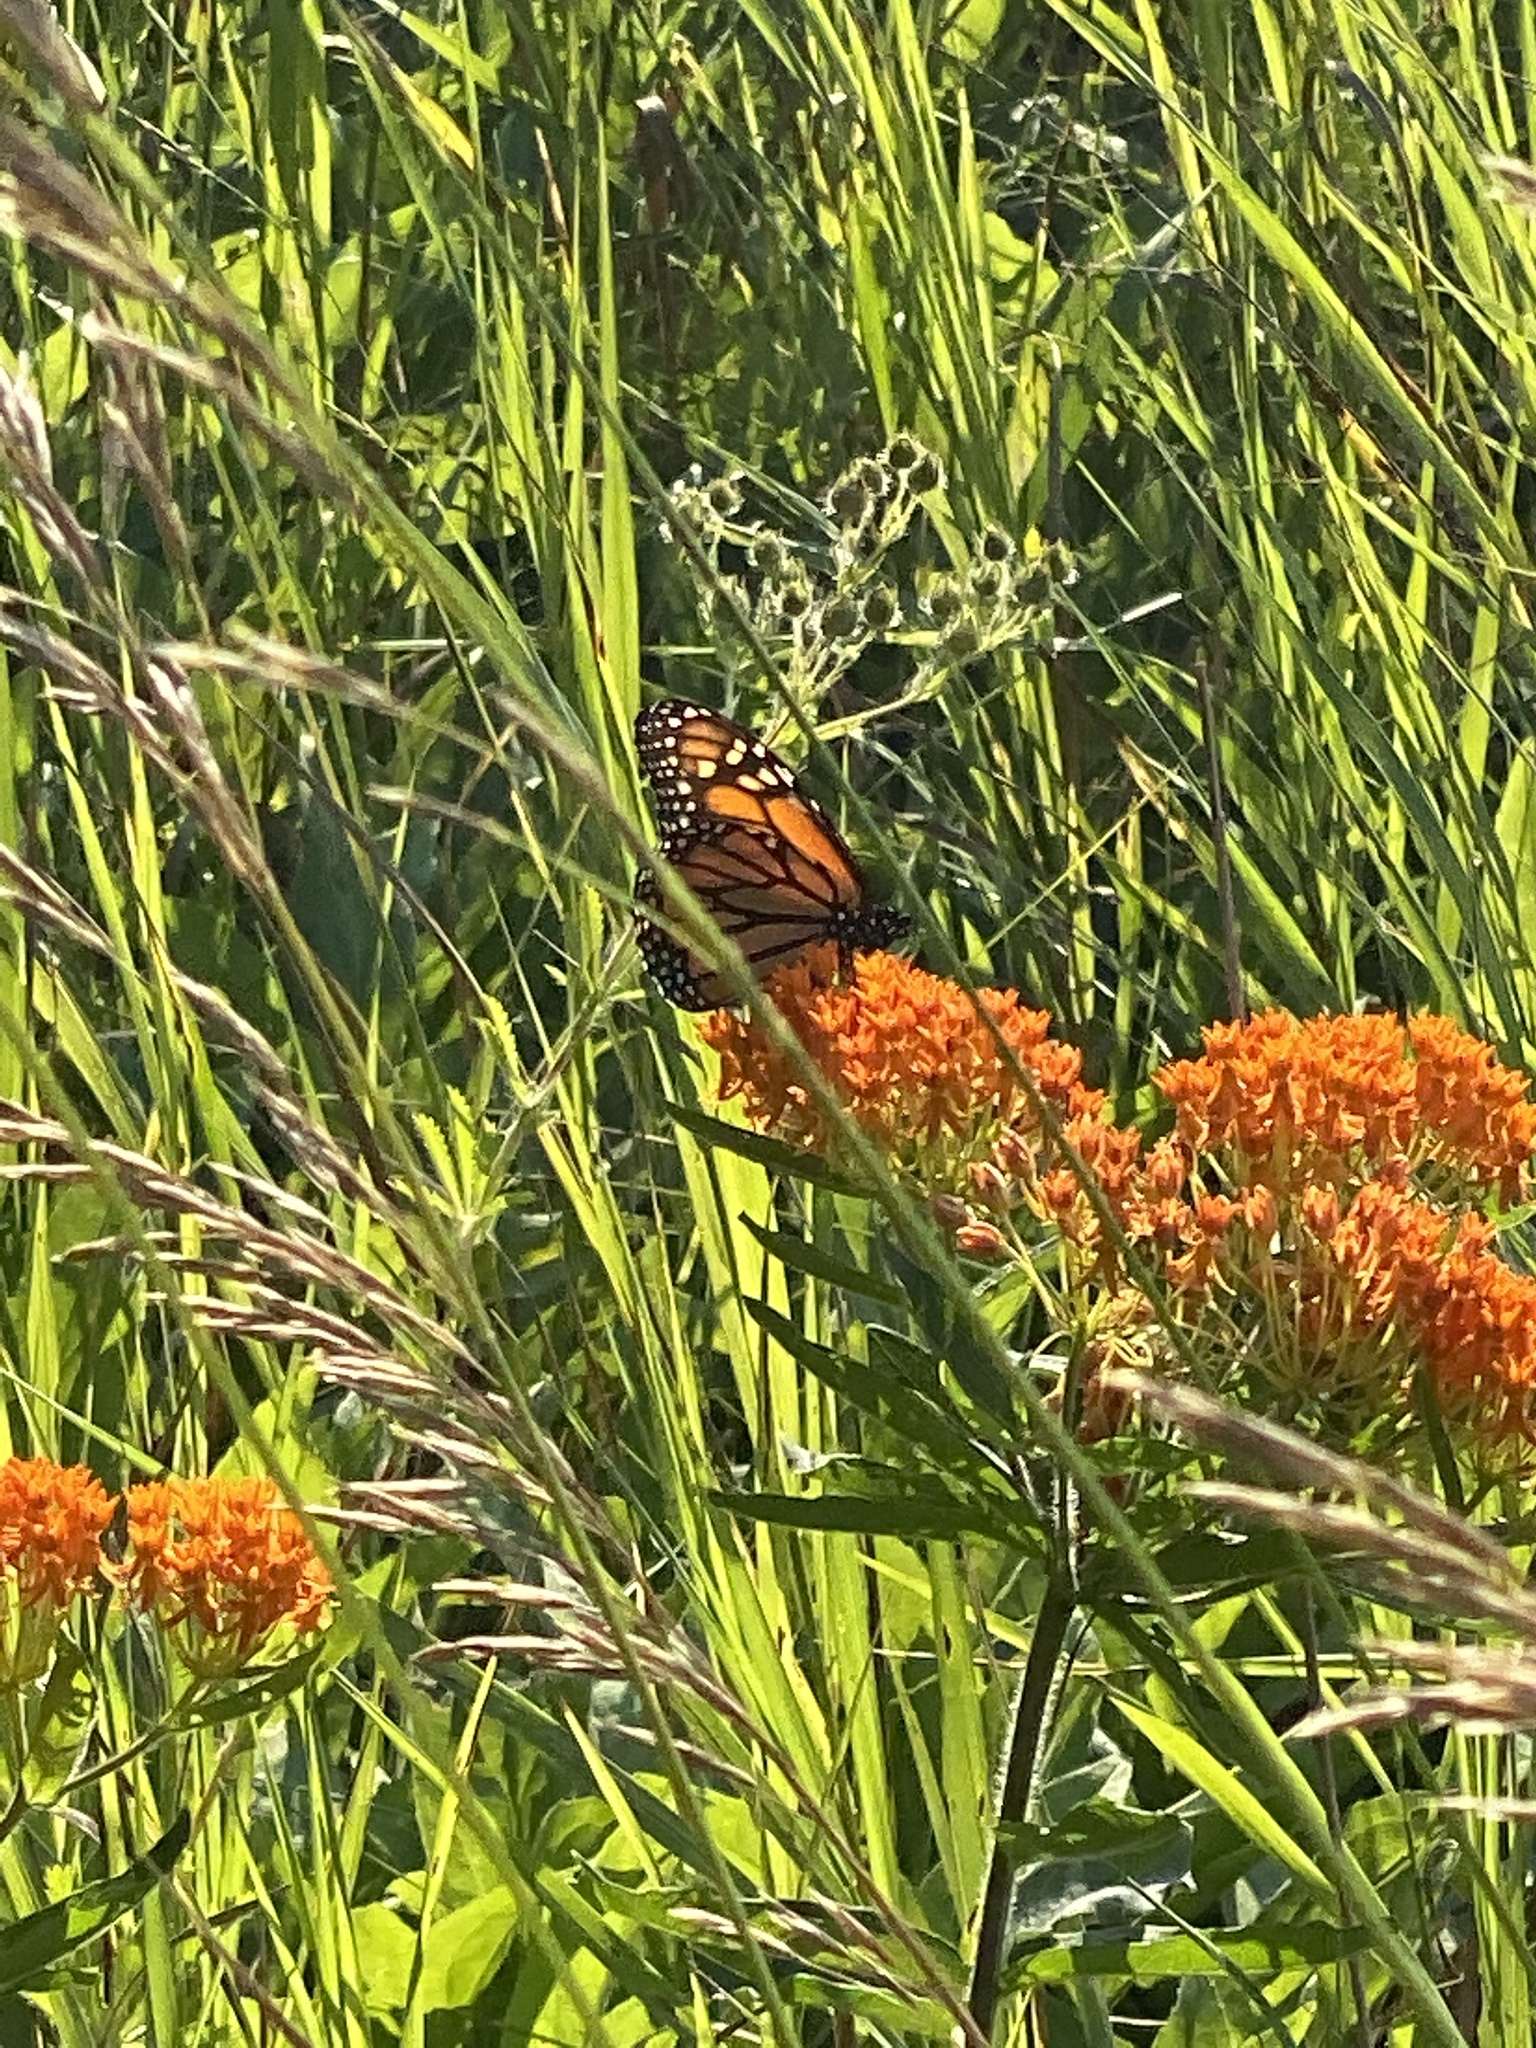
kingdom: Animalia
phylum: Arthropoda
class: Insecta
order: Lepidoptera
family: Nymphalidae
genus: Danaus
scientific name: Danaus plexippus
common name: Monarch
